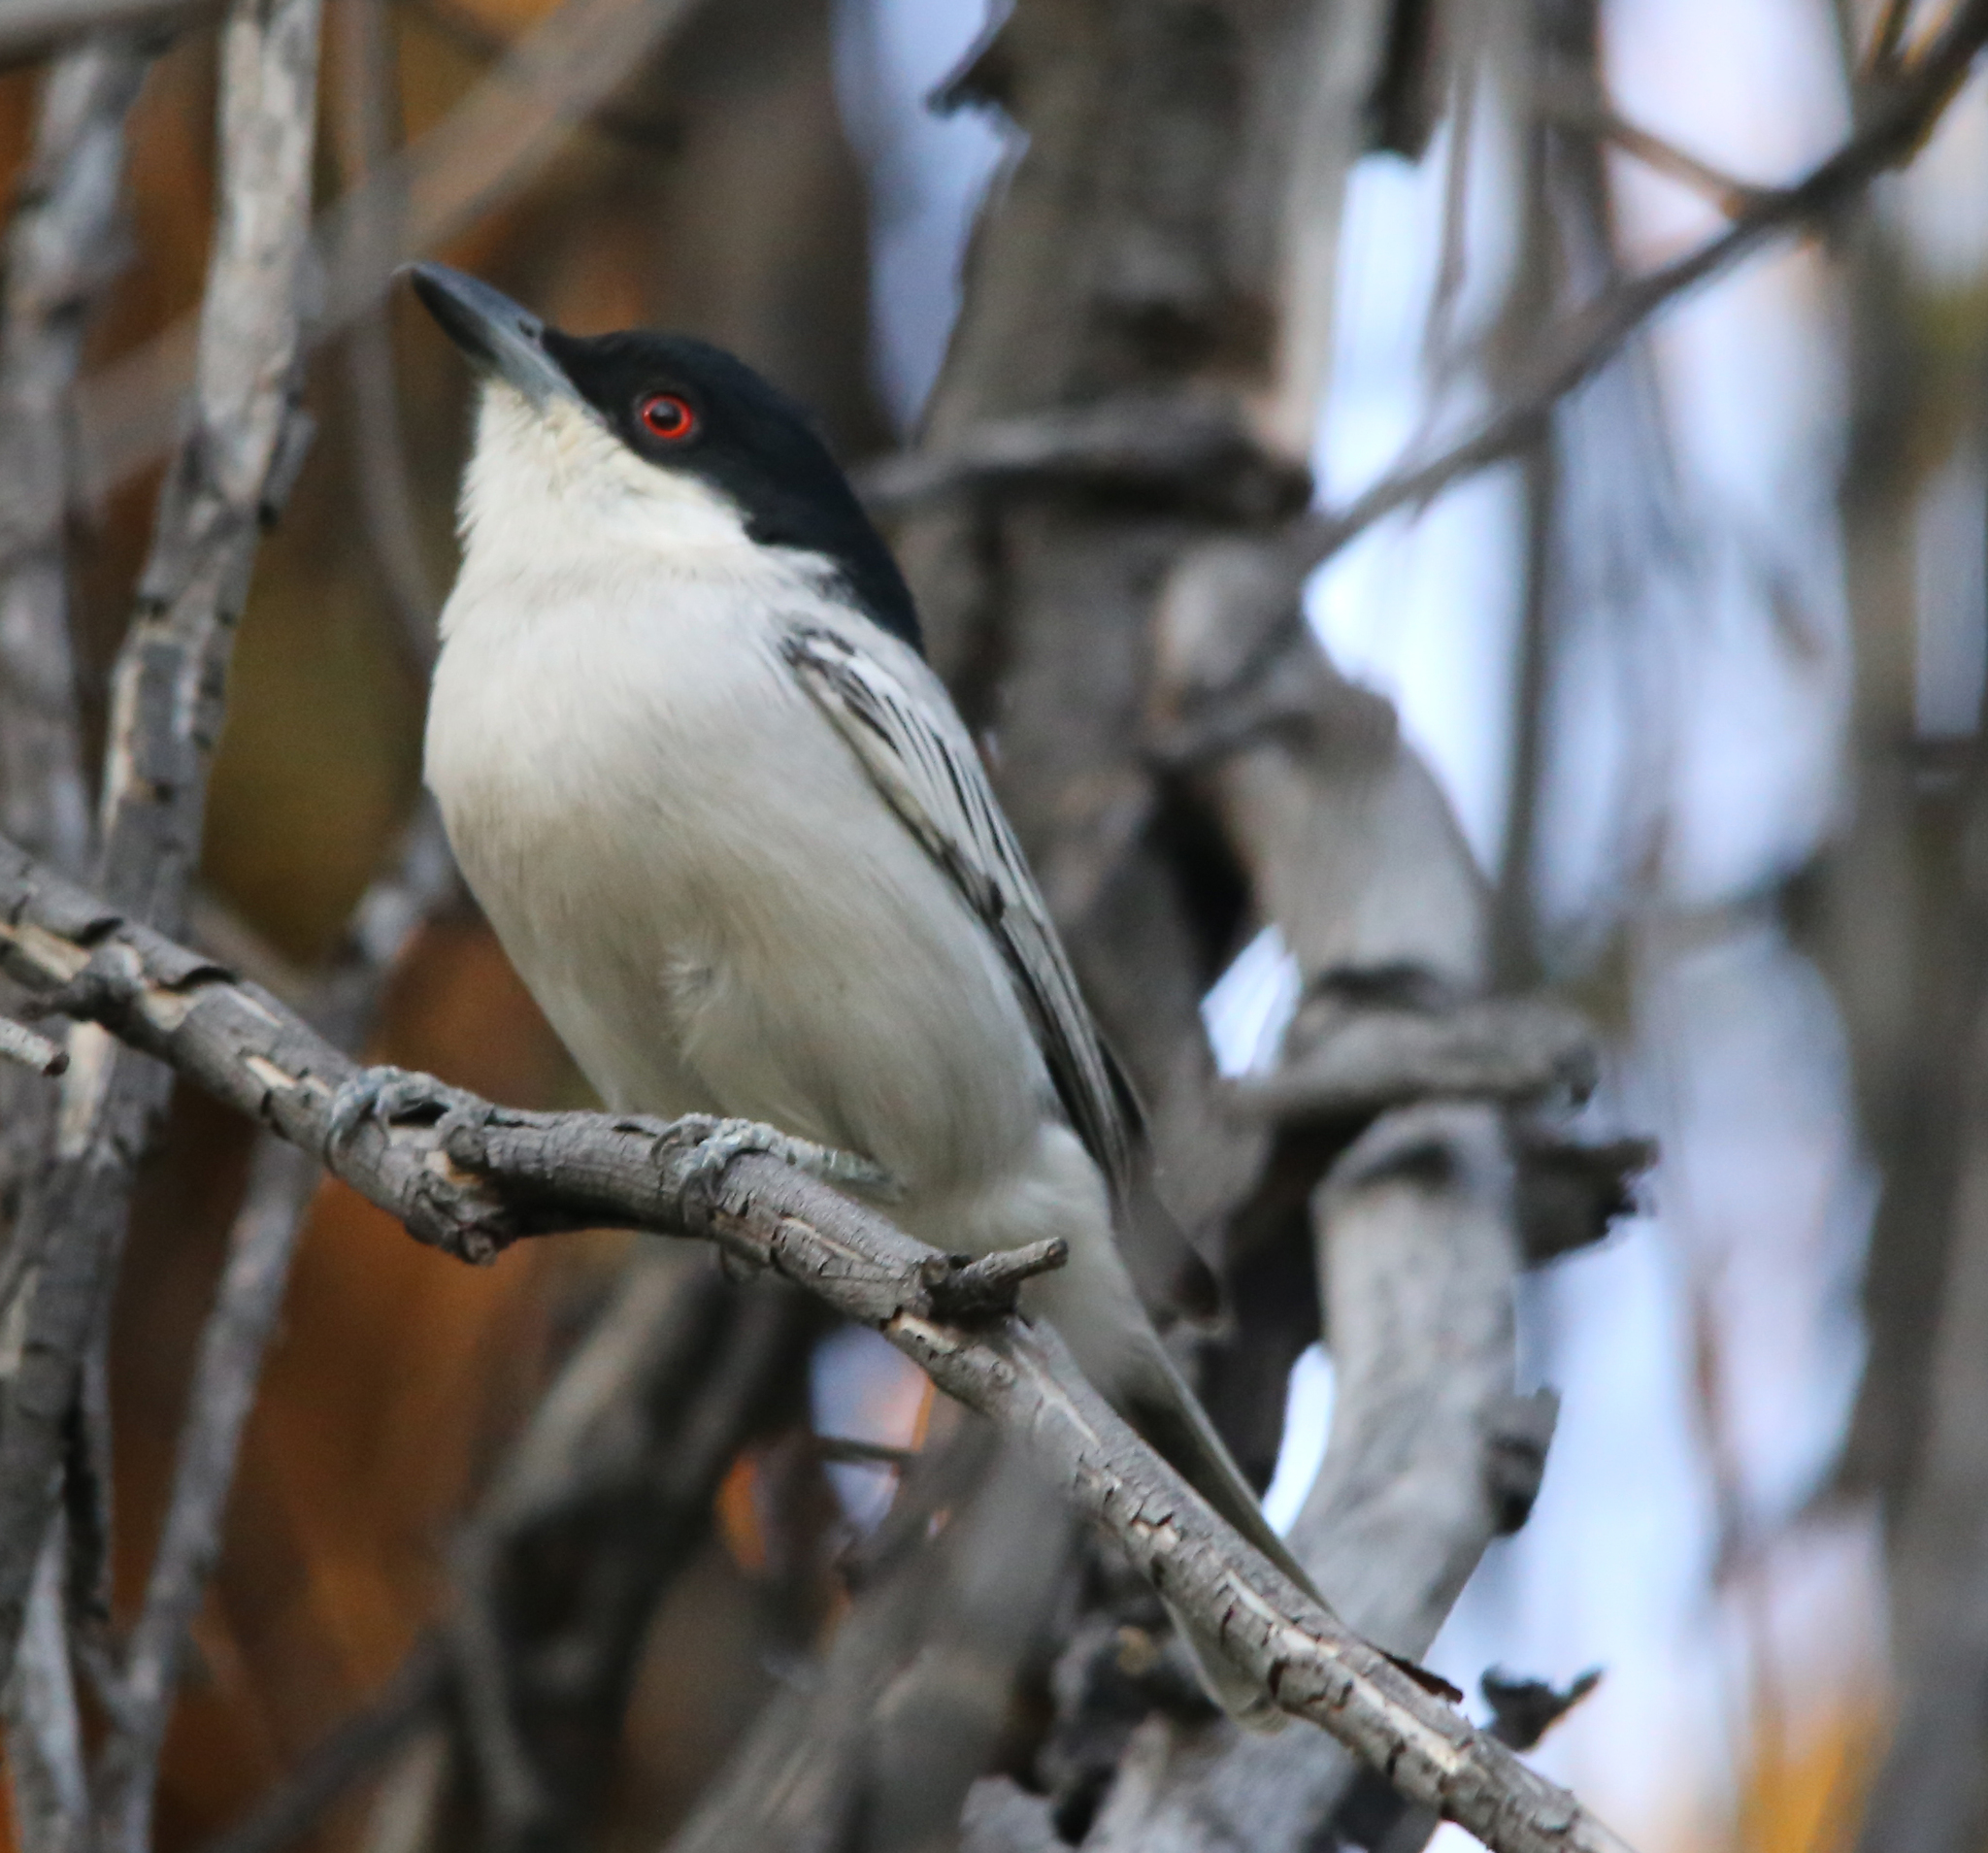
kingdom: Animalia
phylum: Chordata
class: Aves
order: Passeriformes
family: Malaconotidae
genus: Dryoscopus
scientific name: Dryoscopus cubla
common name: Black-backed puffback
